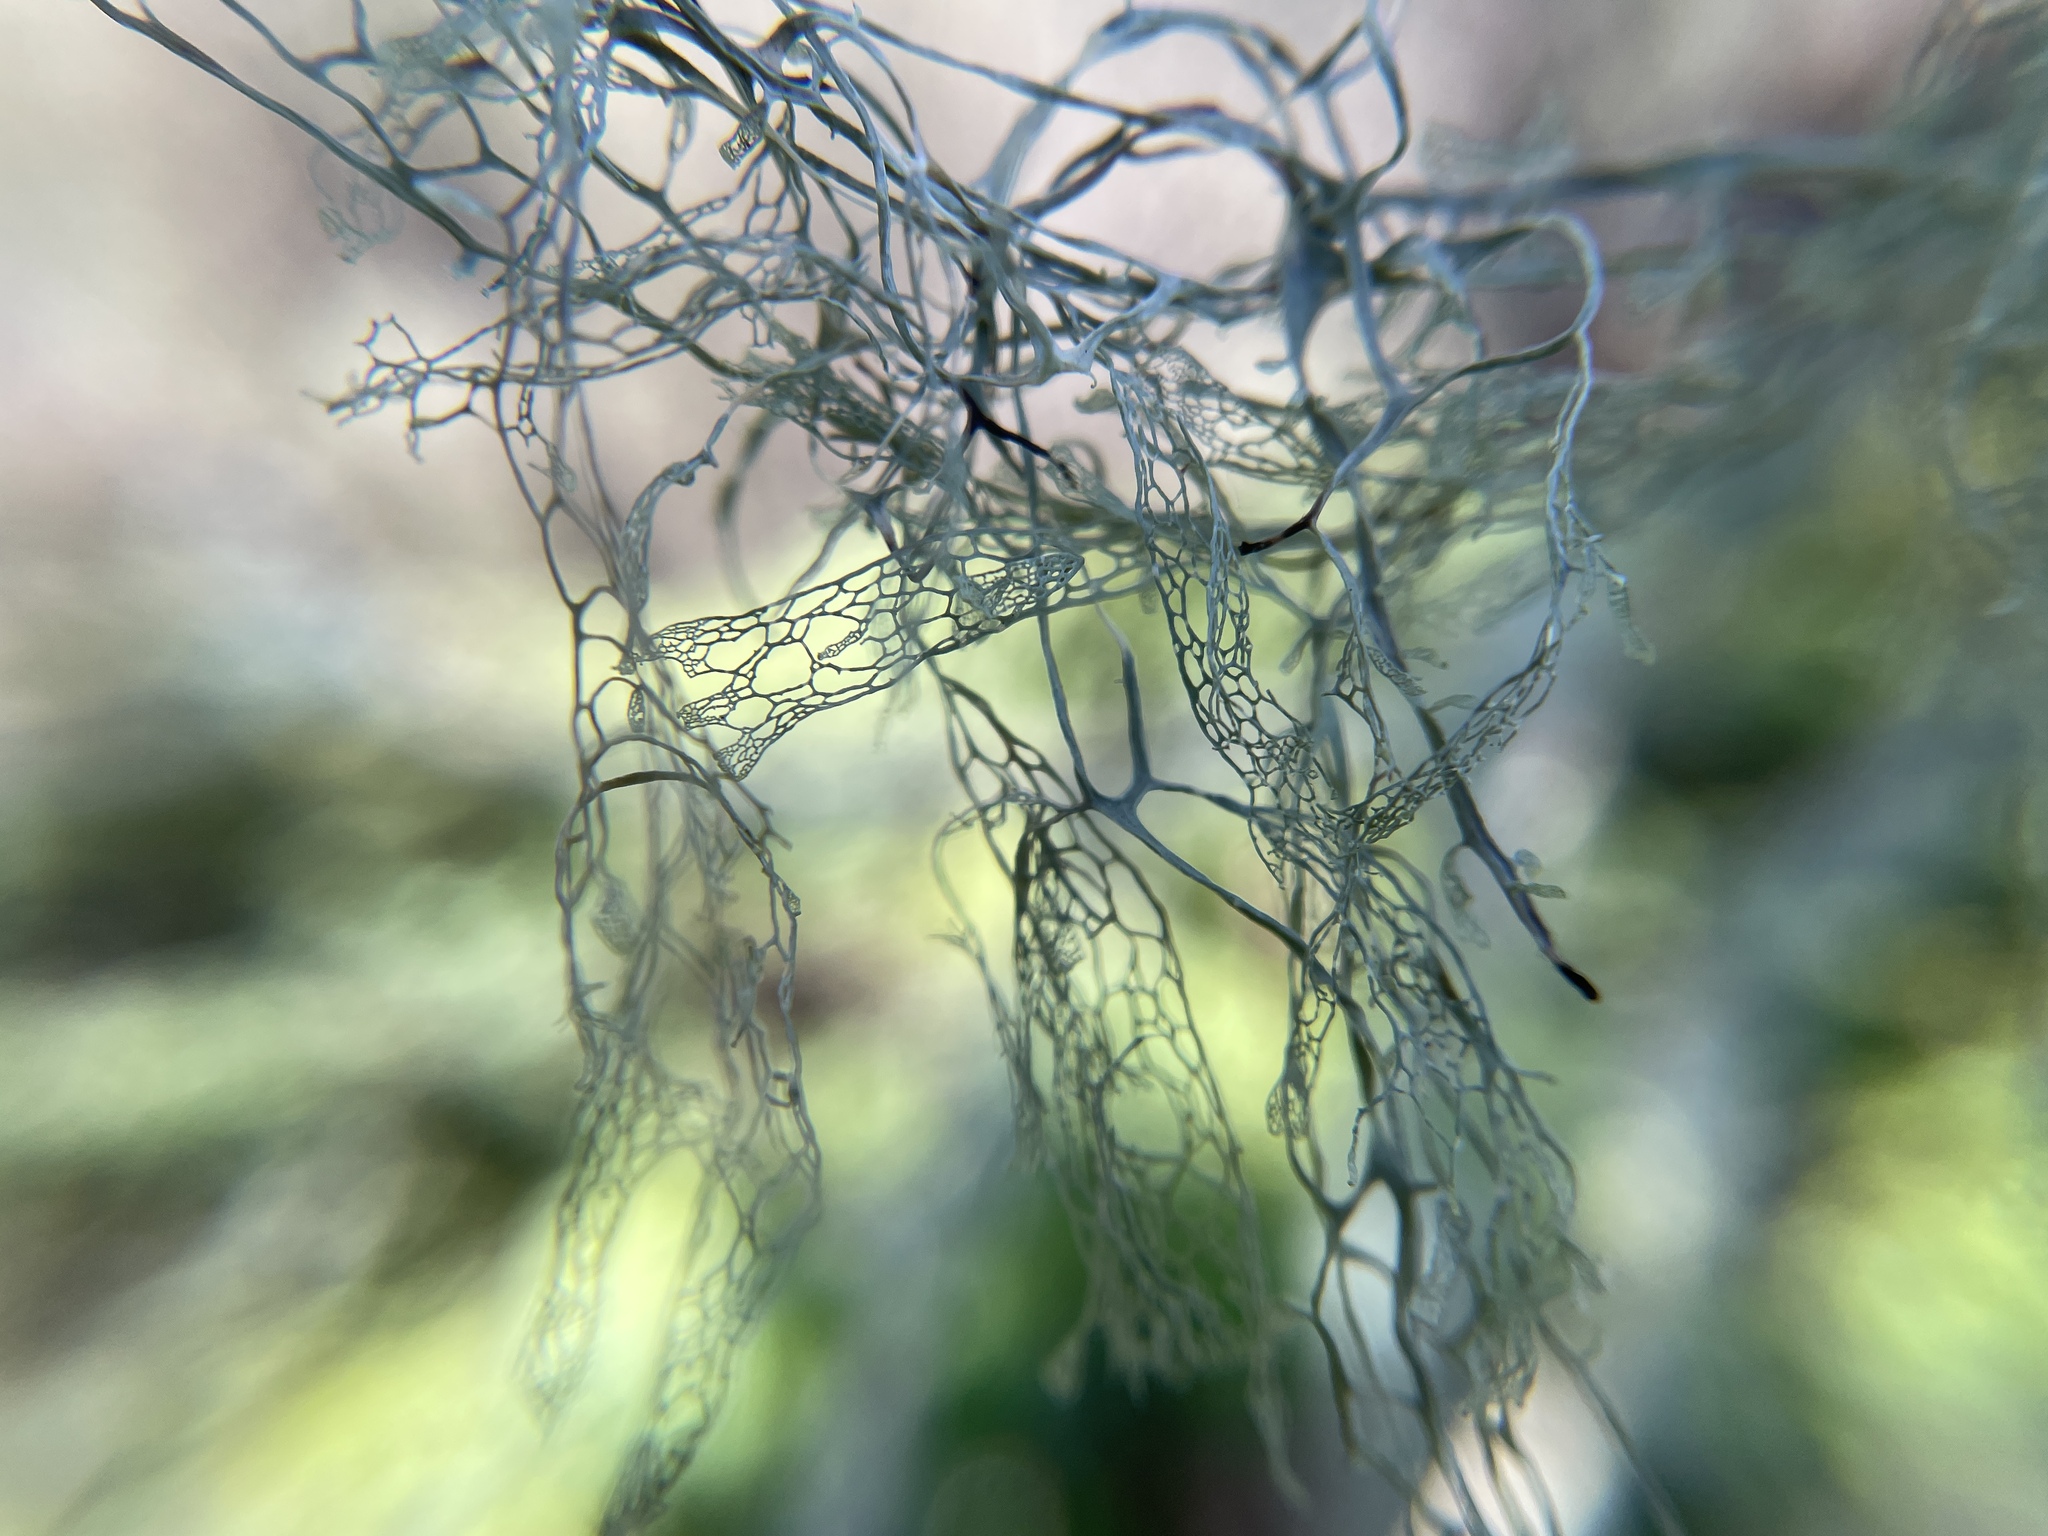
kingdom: Fungi
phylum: Ascomycota
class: Lecanoromycetes
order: Lecanorales
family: Ramalinaceae
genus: Ramalina
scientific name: Ramalina menziesii
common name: Lace lichen
